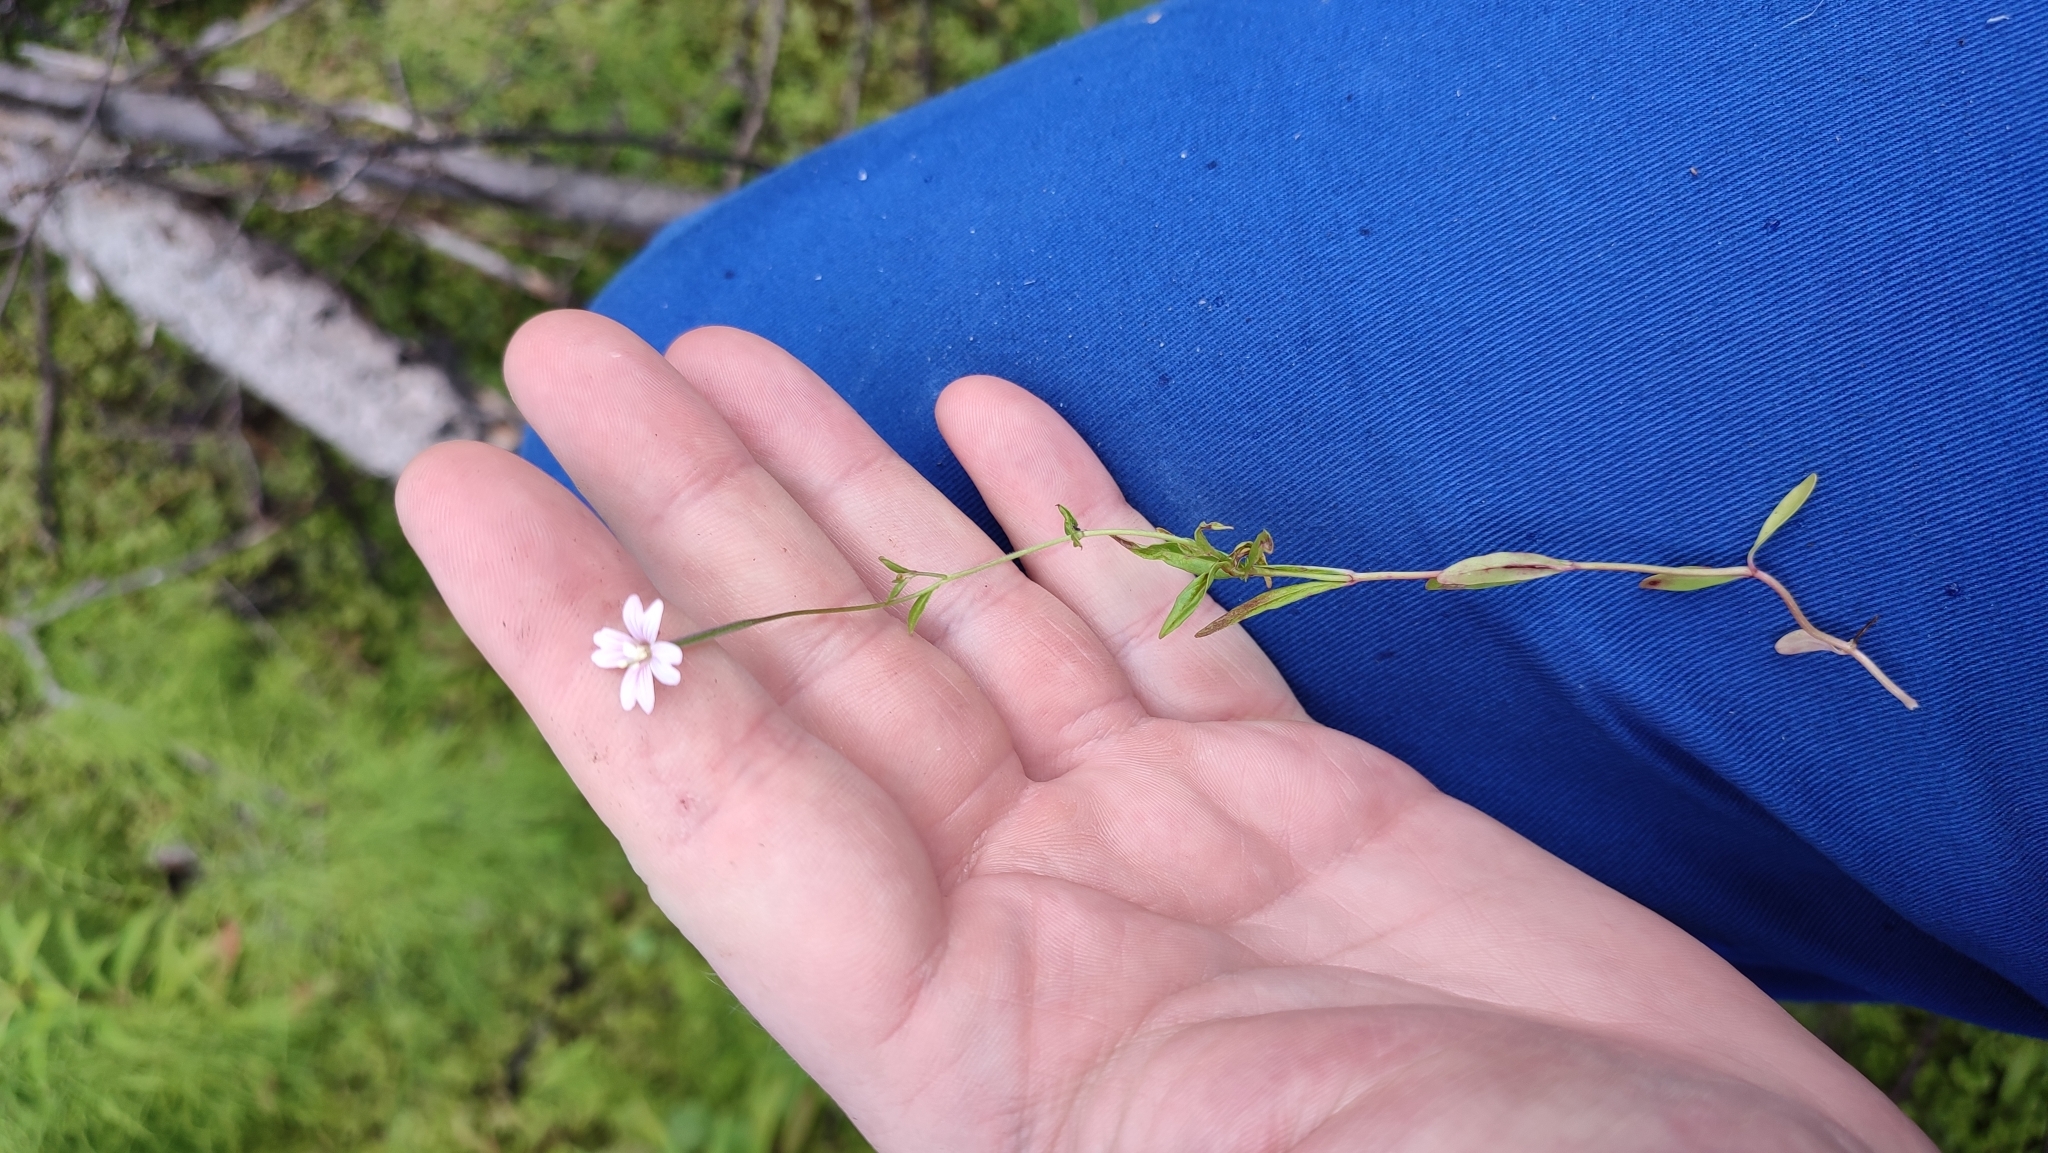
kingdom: Plantae
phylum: Tracheophyta
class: Magnoliopsida
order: Myrtales
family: Onagraceae
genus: Epilobium
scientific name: Epilobium palustre
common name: Marsh willowherb
